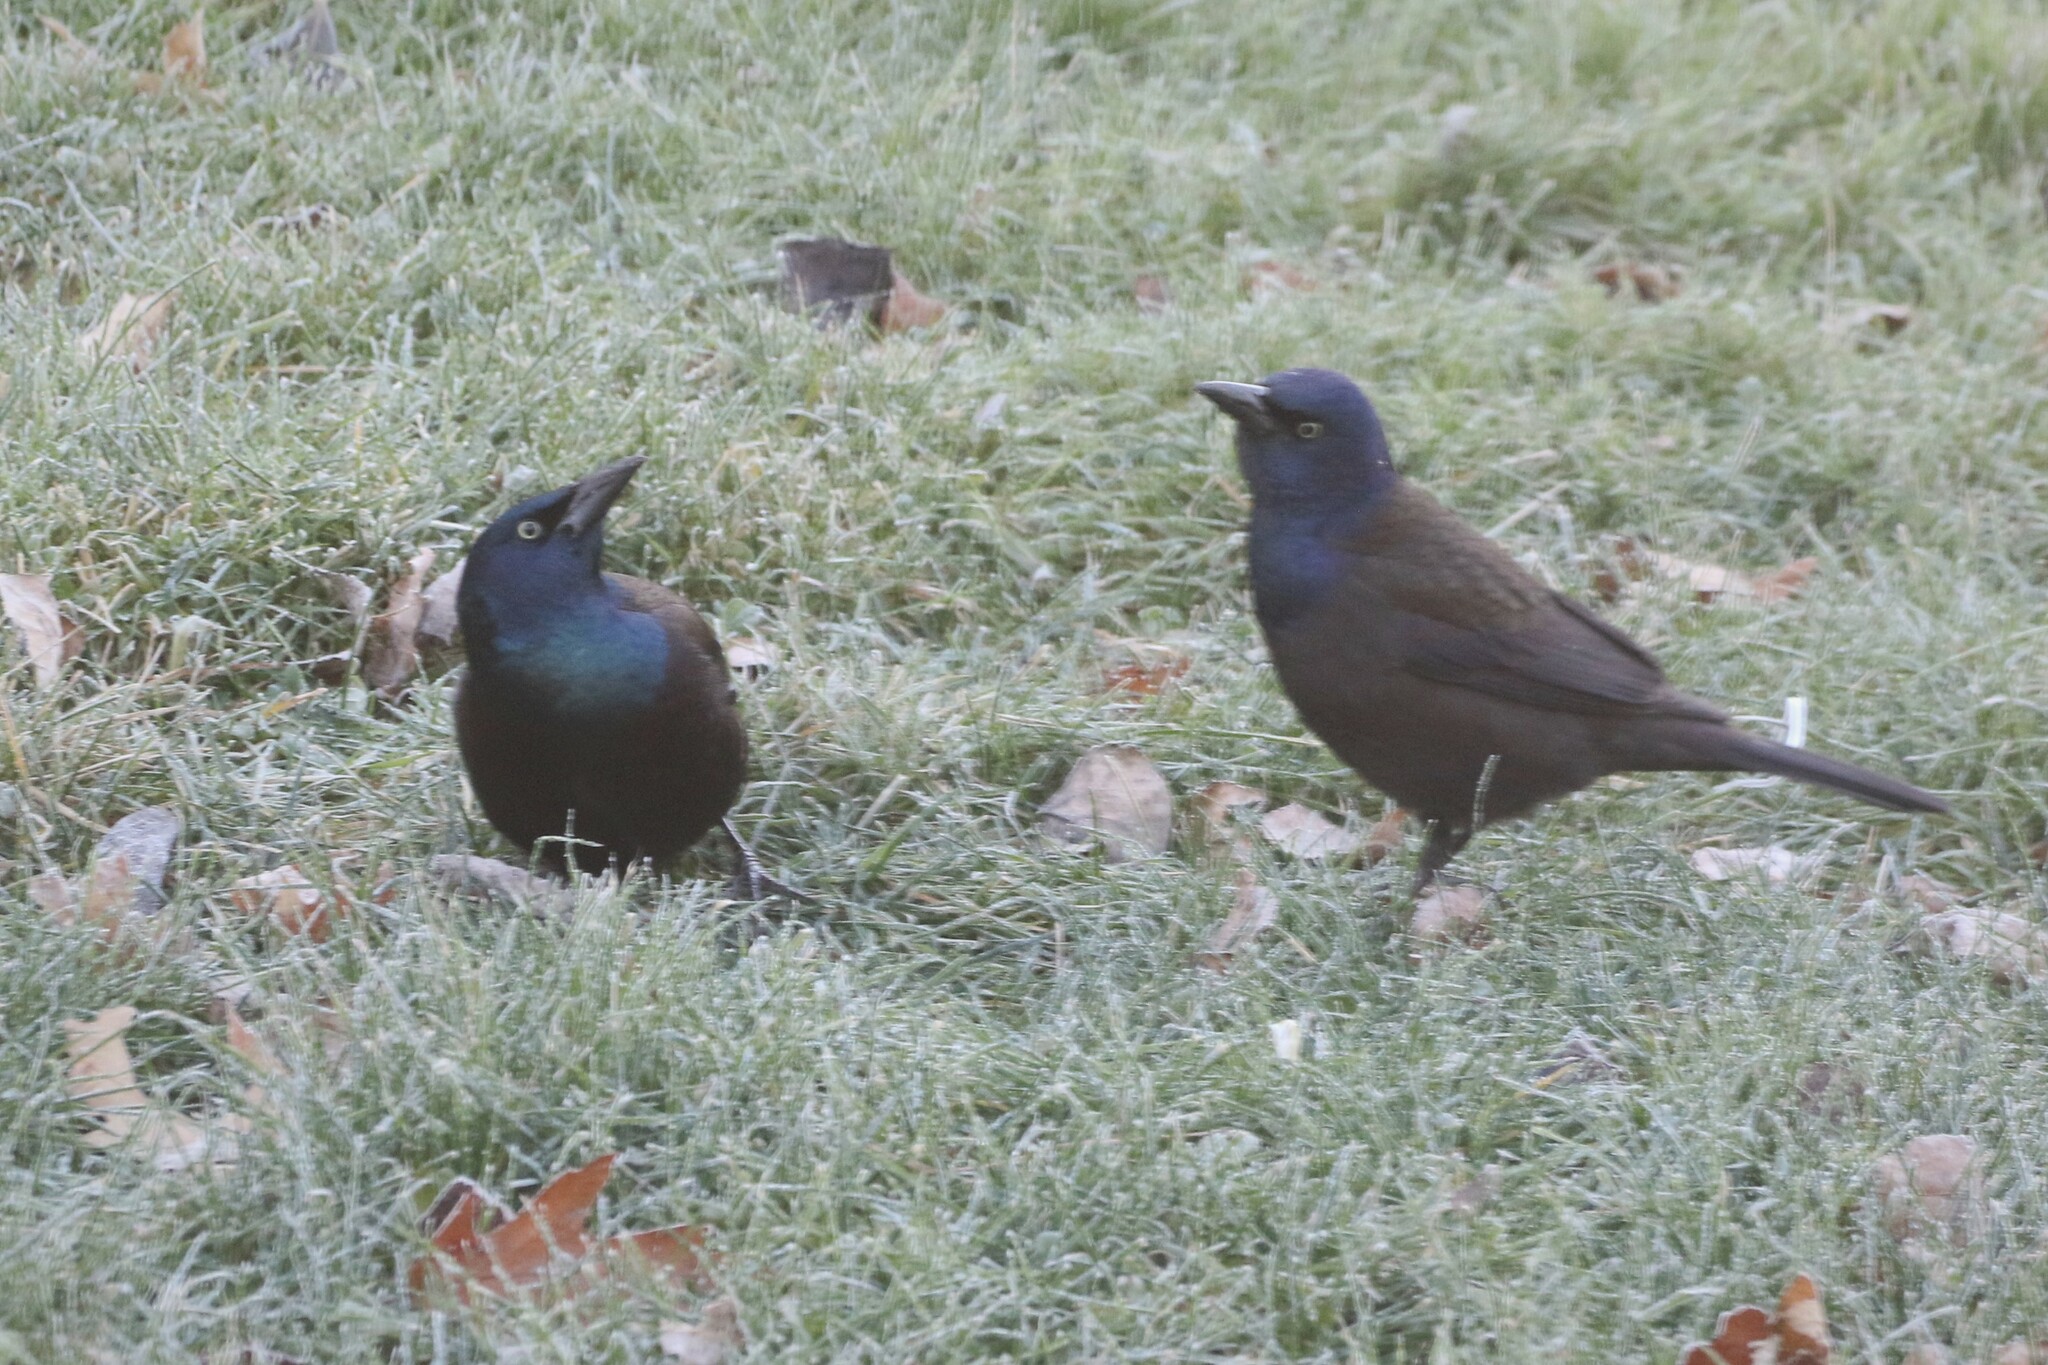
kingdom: Animalia
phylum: Chordata
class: Aves
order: Passeriformes
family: Icteridae
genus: Quiscalus
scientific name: Quiscalus quiscula
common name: Common grackle
